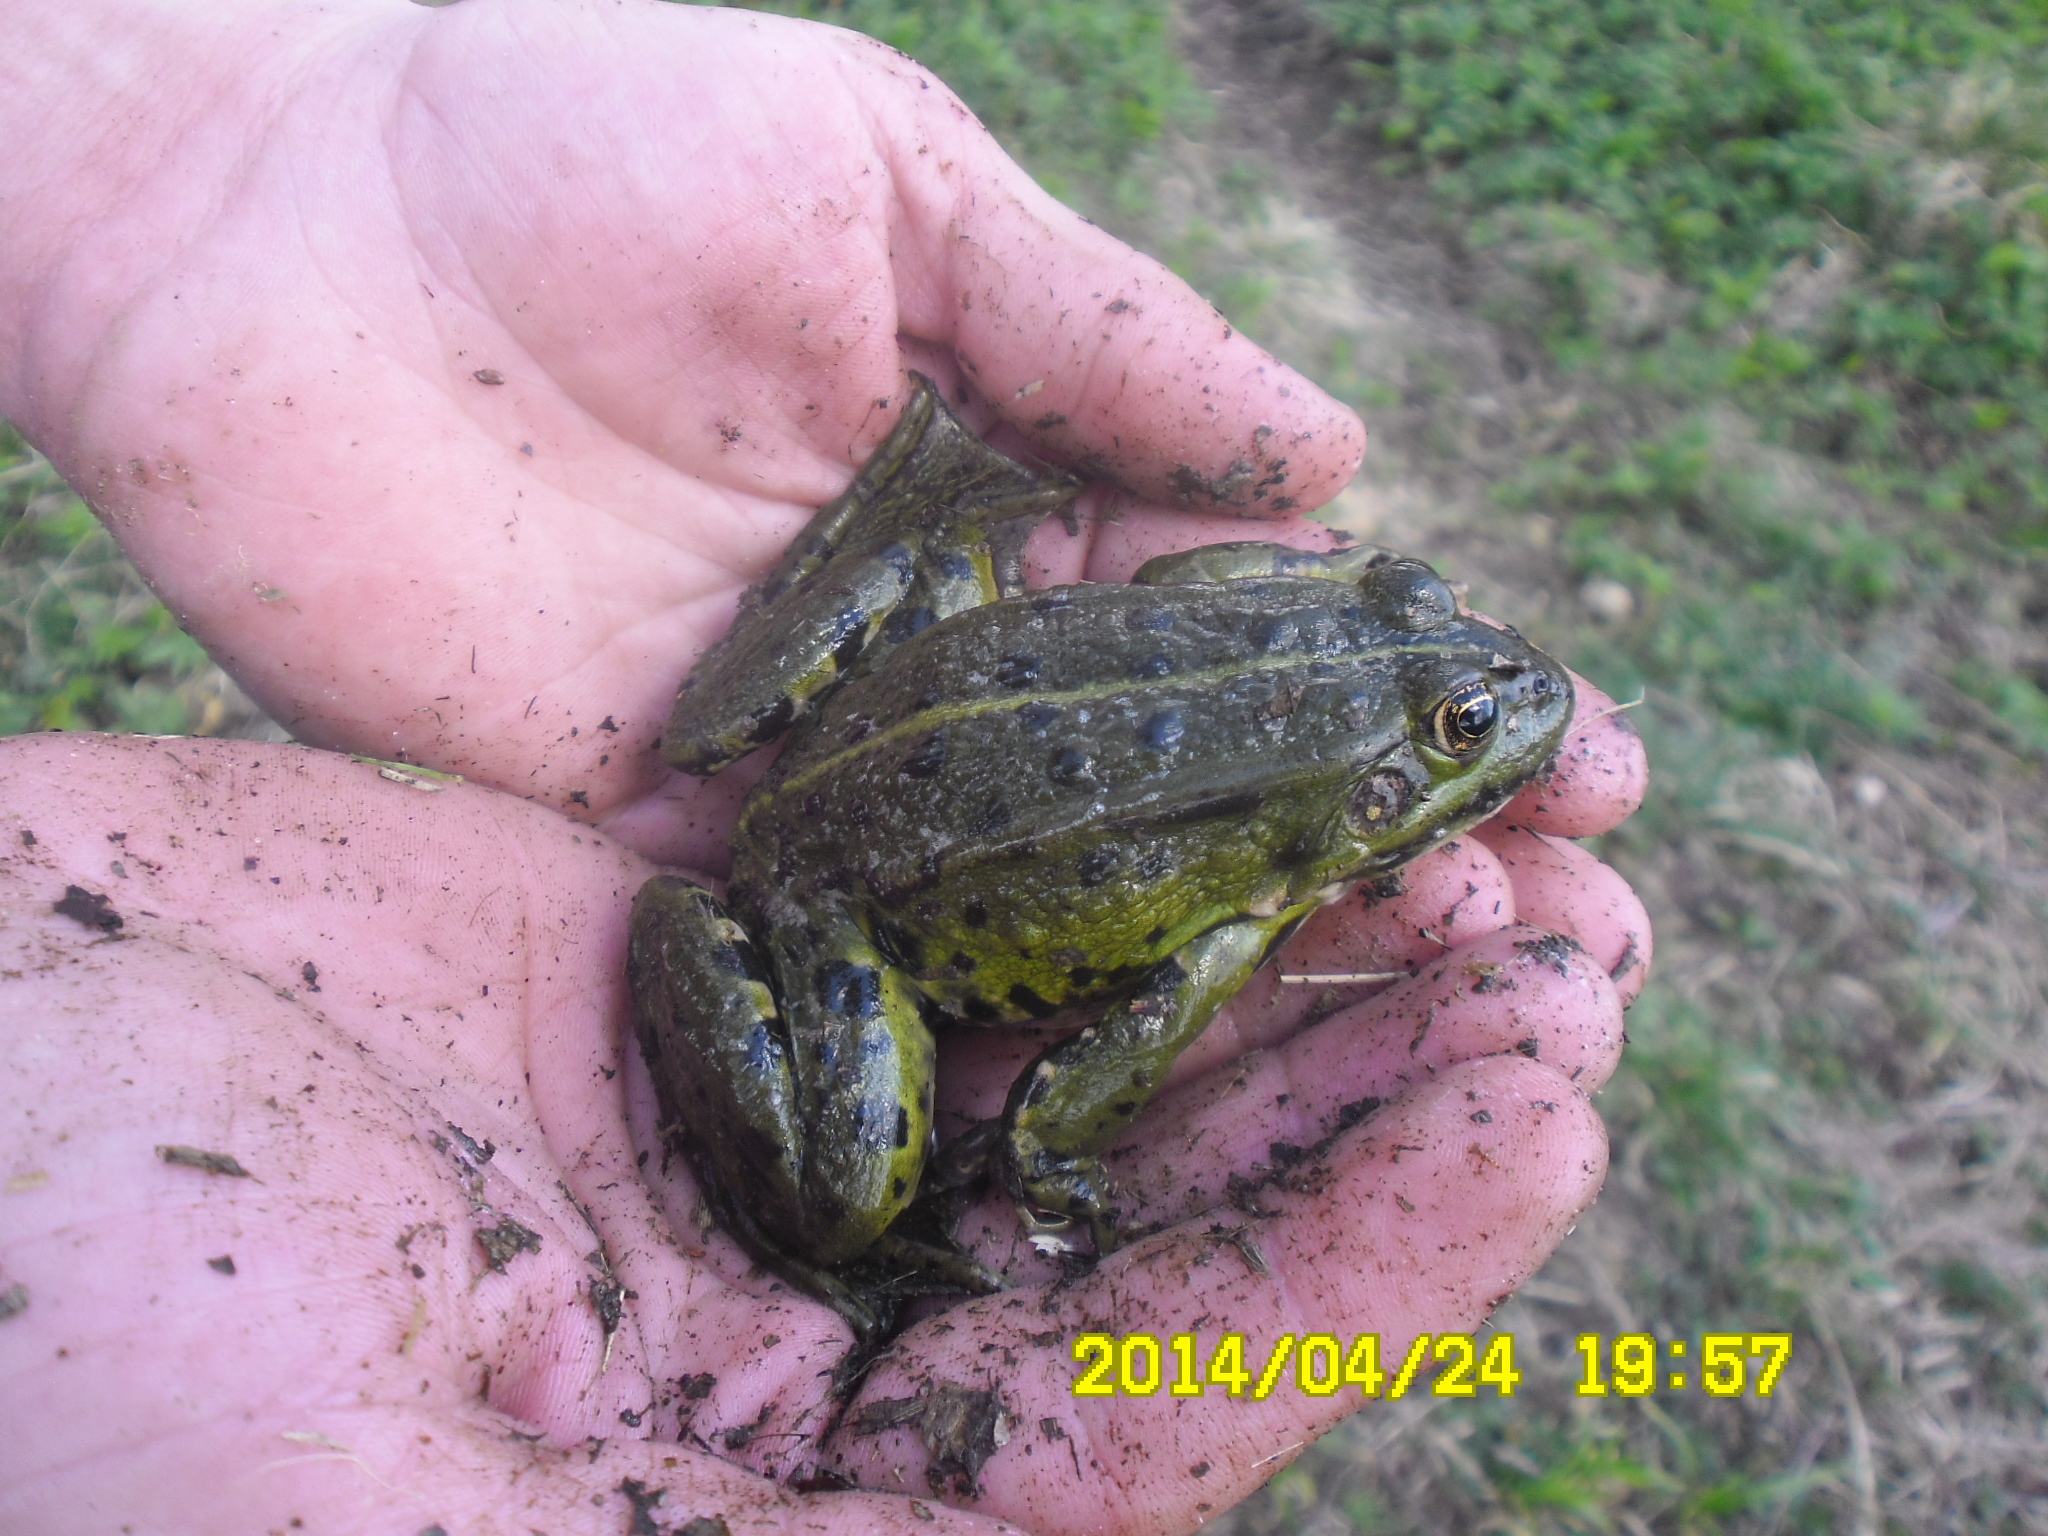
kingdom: Animalia
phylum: Chordata
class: Amphibia
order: Anura
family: Ranidae
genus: Pelophylax
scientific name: Pelophylax ridibundus
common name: Marsh frog
